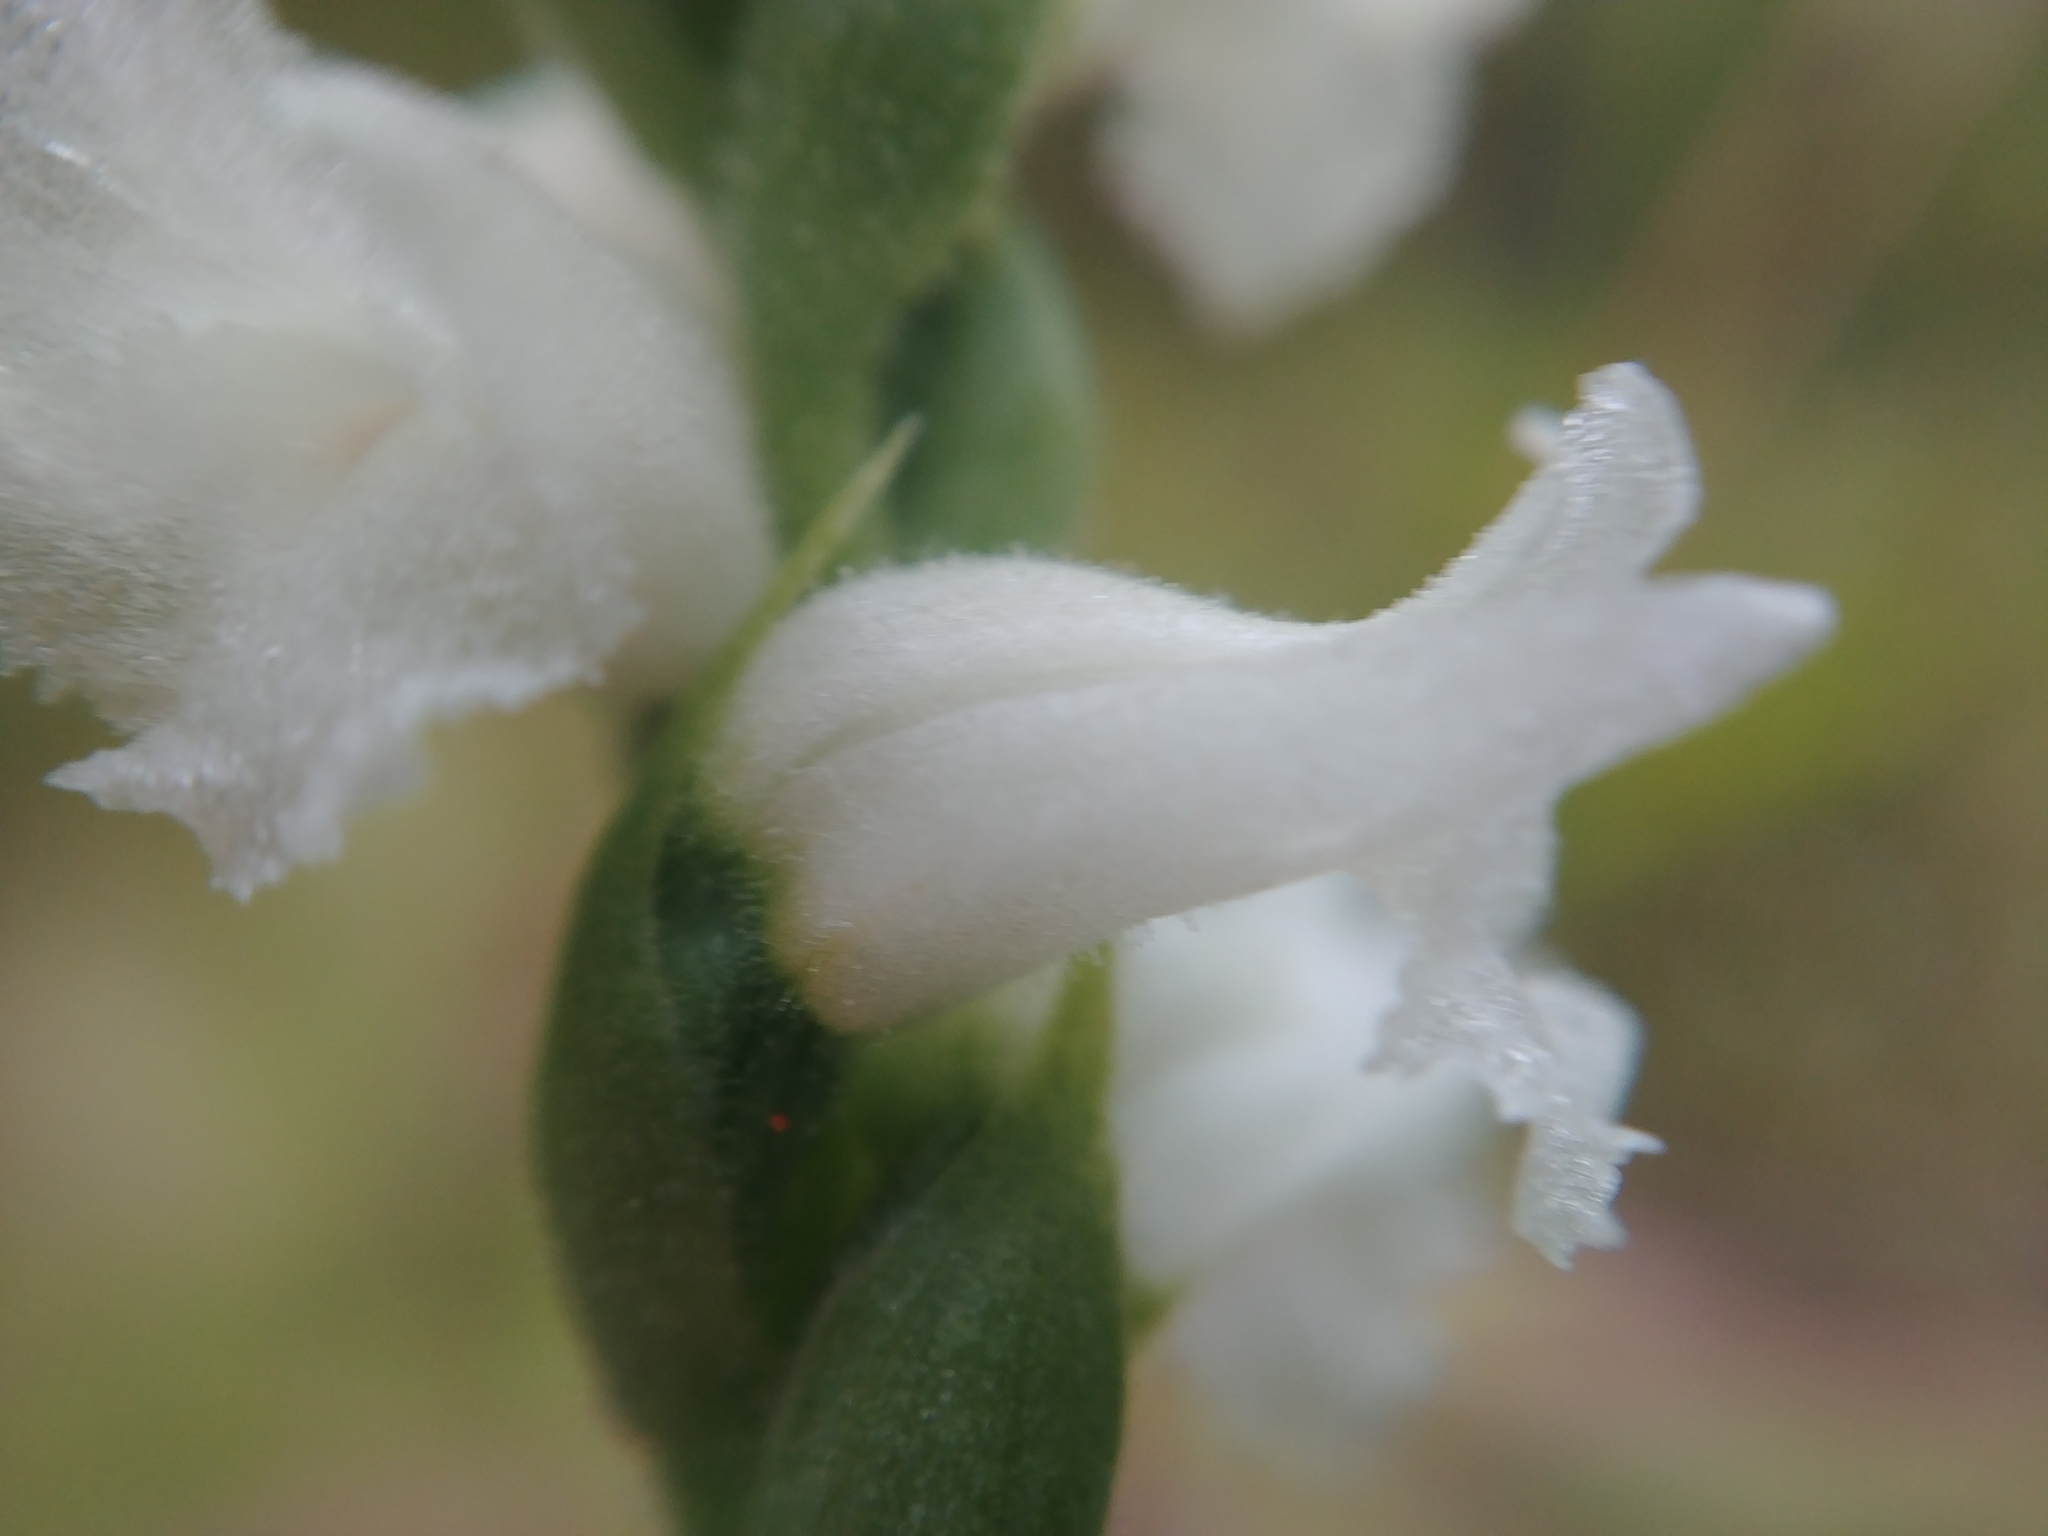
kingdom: Plantae
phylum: Tracheophyta
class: Liliopsida
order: Asparagales
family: Orchidaceae
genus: Spiranthes
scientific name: Spiranthes arcisepala
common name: Appalachian ladies'-tresses
